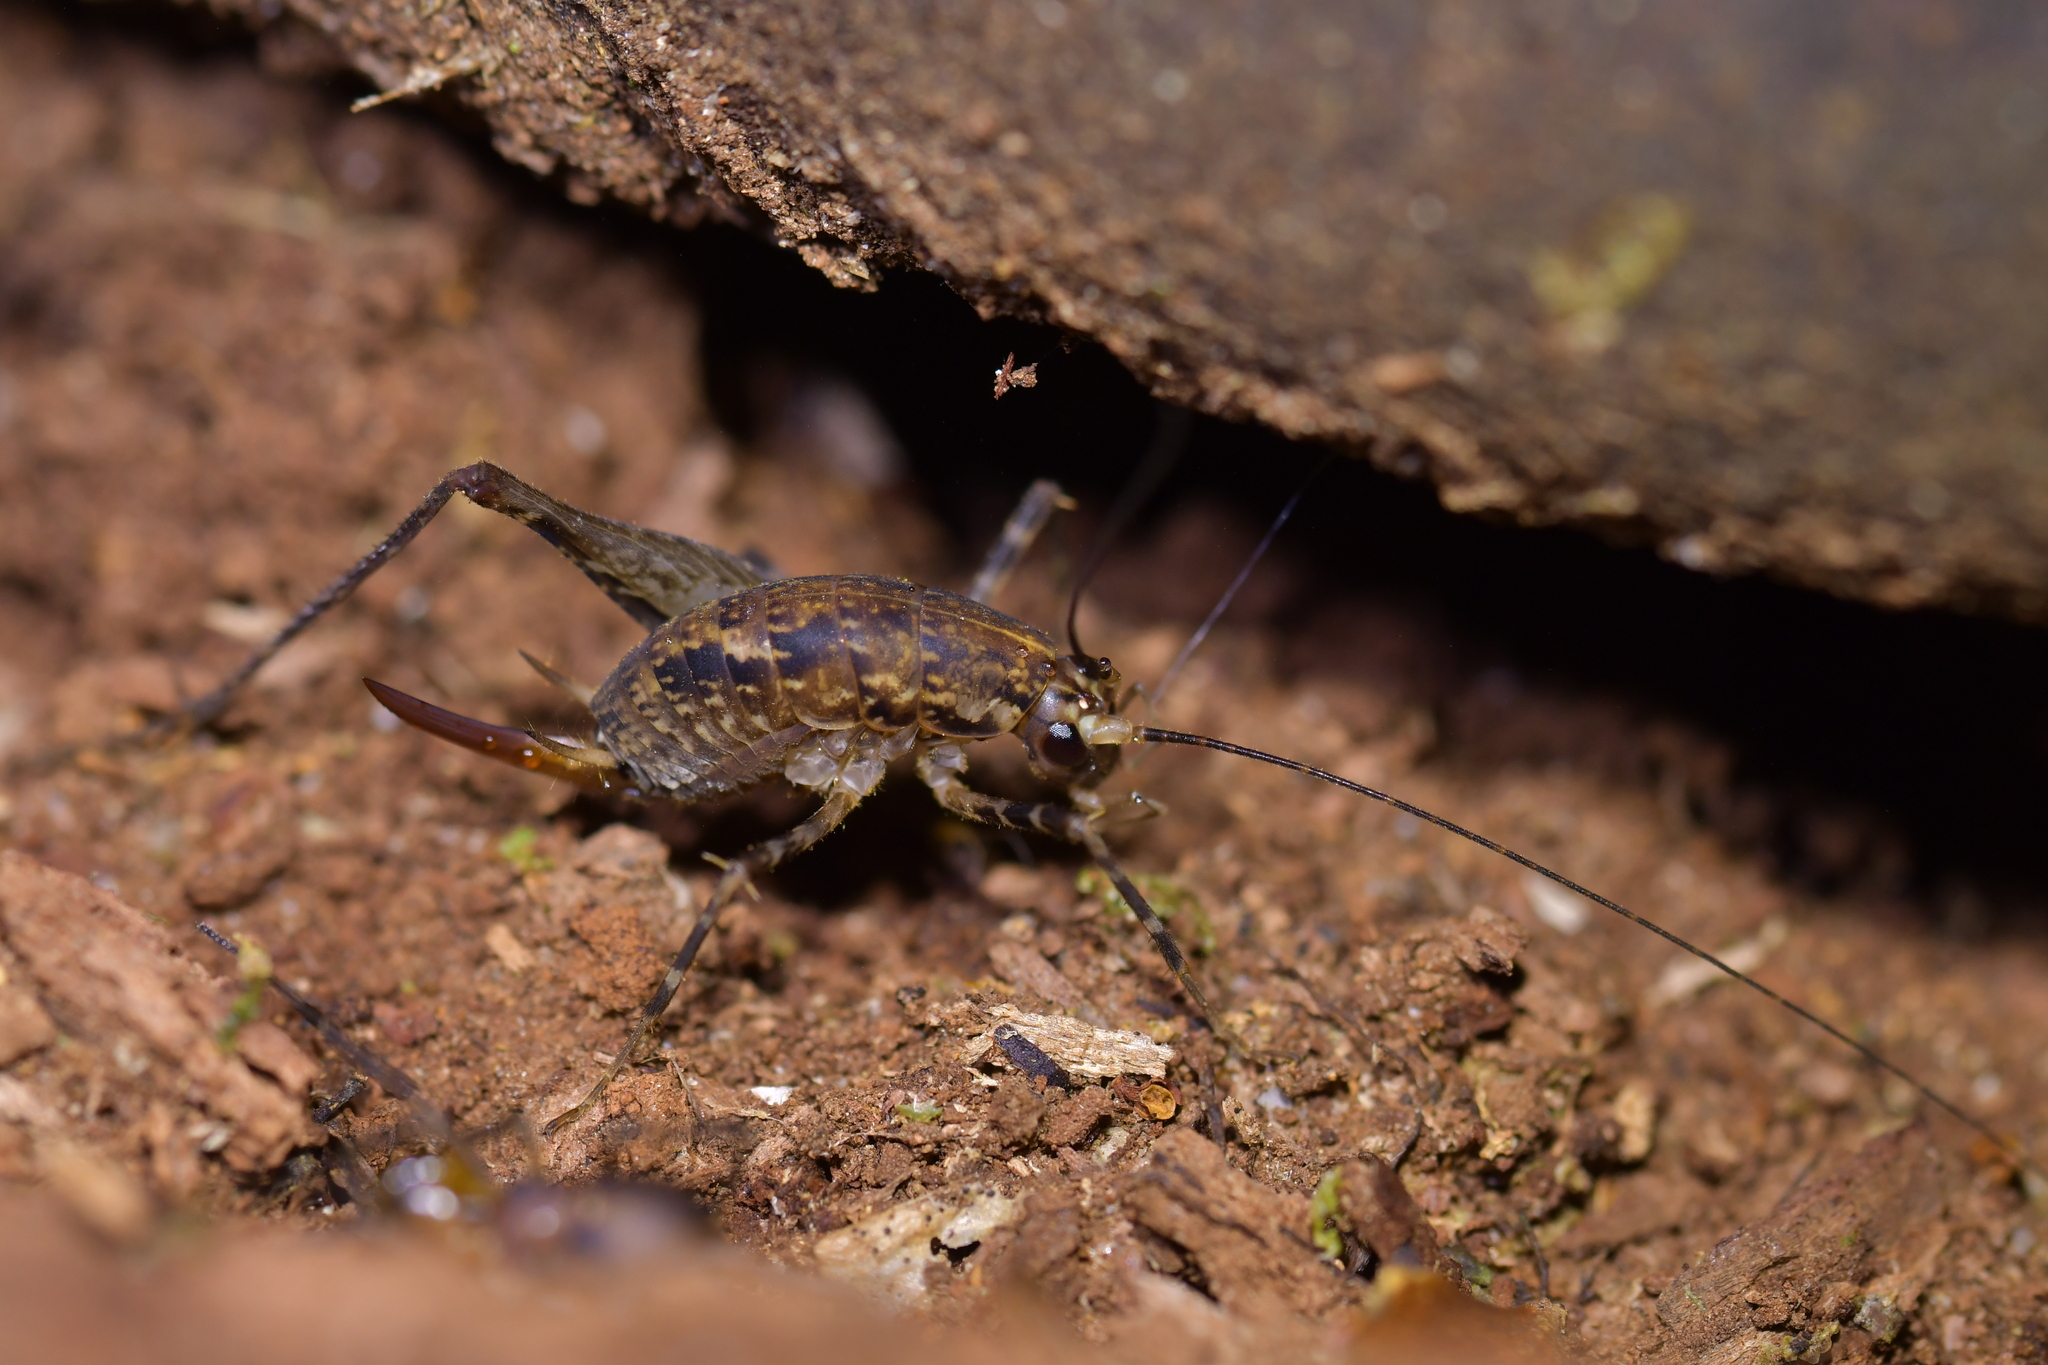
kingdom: Animalia
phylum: Arthropoda
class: Insecta
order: Orthoptera
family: Rhaphidophoridae
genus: Pleioplectron
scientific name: Pleioplectron hudsoni
